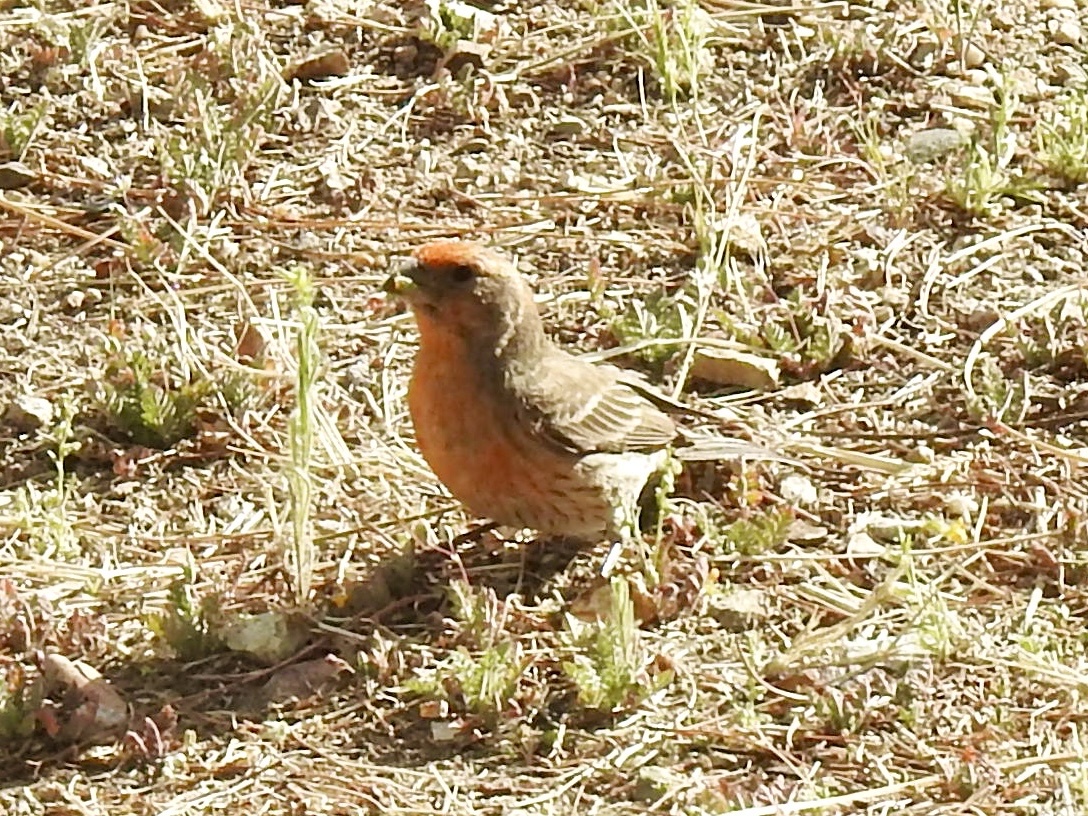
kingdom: Animalia
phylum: Chordata
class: Aves
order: Passeriformes
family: Fringillidae
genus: Haemorhous
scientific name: Haemorhous mexicanus
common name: House finch
